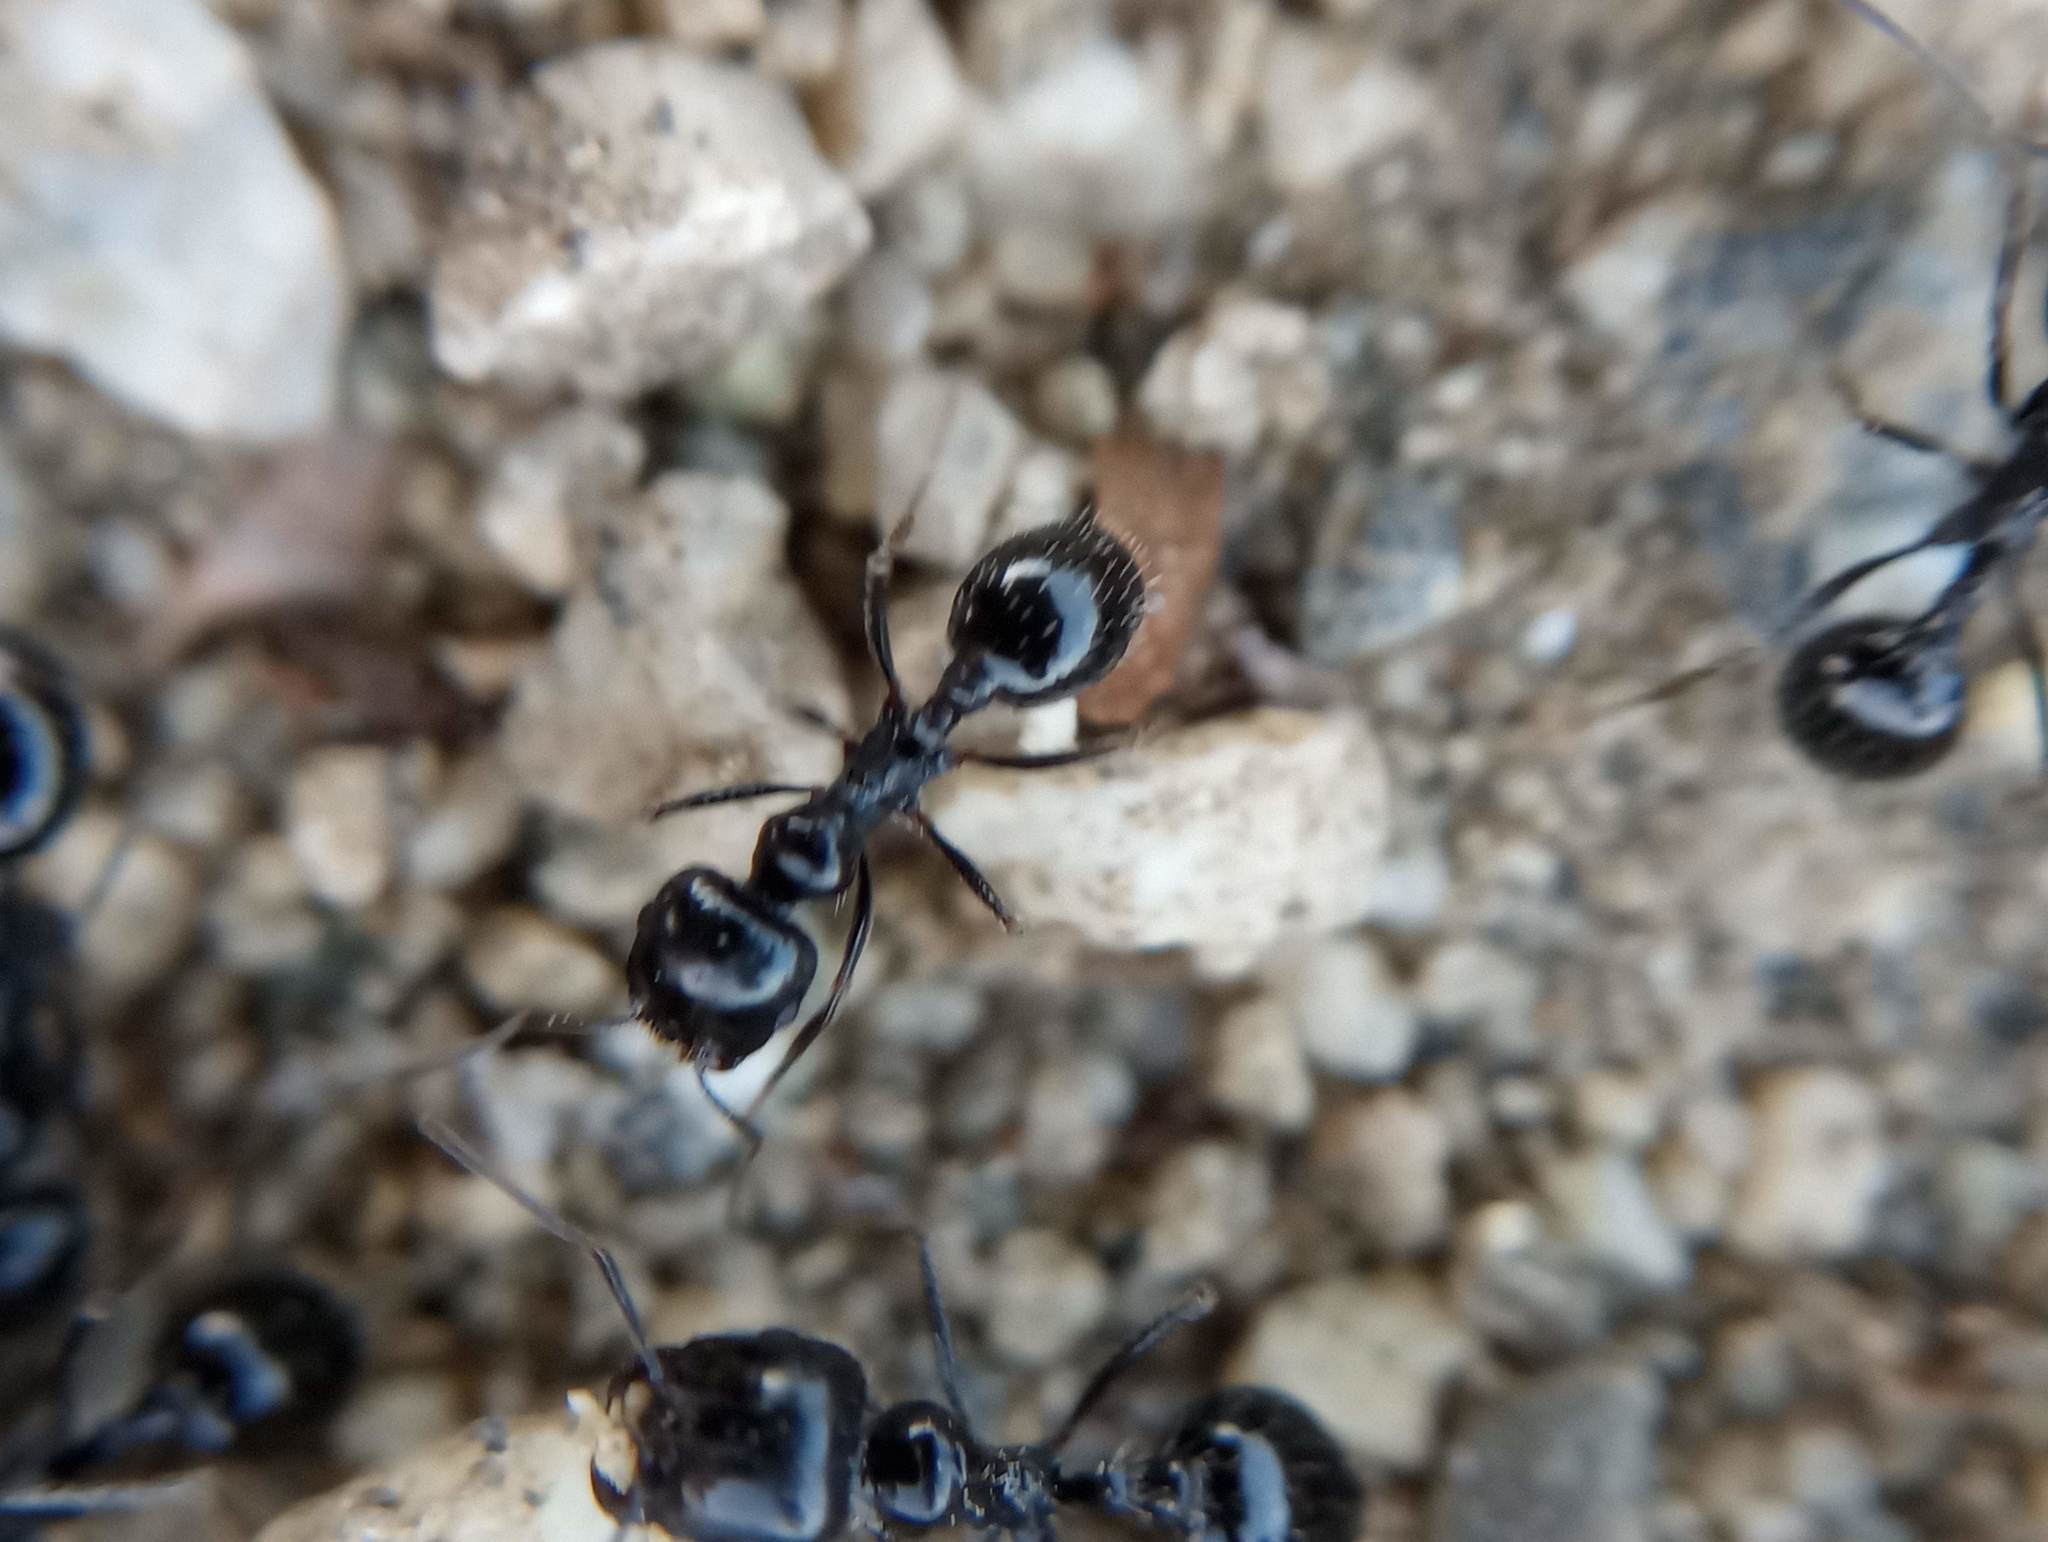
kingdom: Animalia
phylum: Arthropoda
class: Insecta
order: Hymenoptera
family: Formicidae
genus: Messor
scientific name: Messor pergandei
